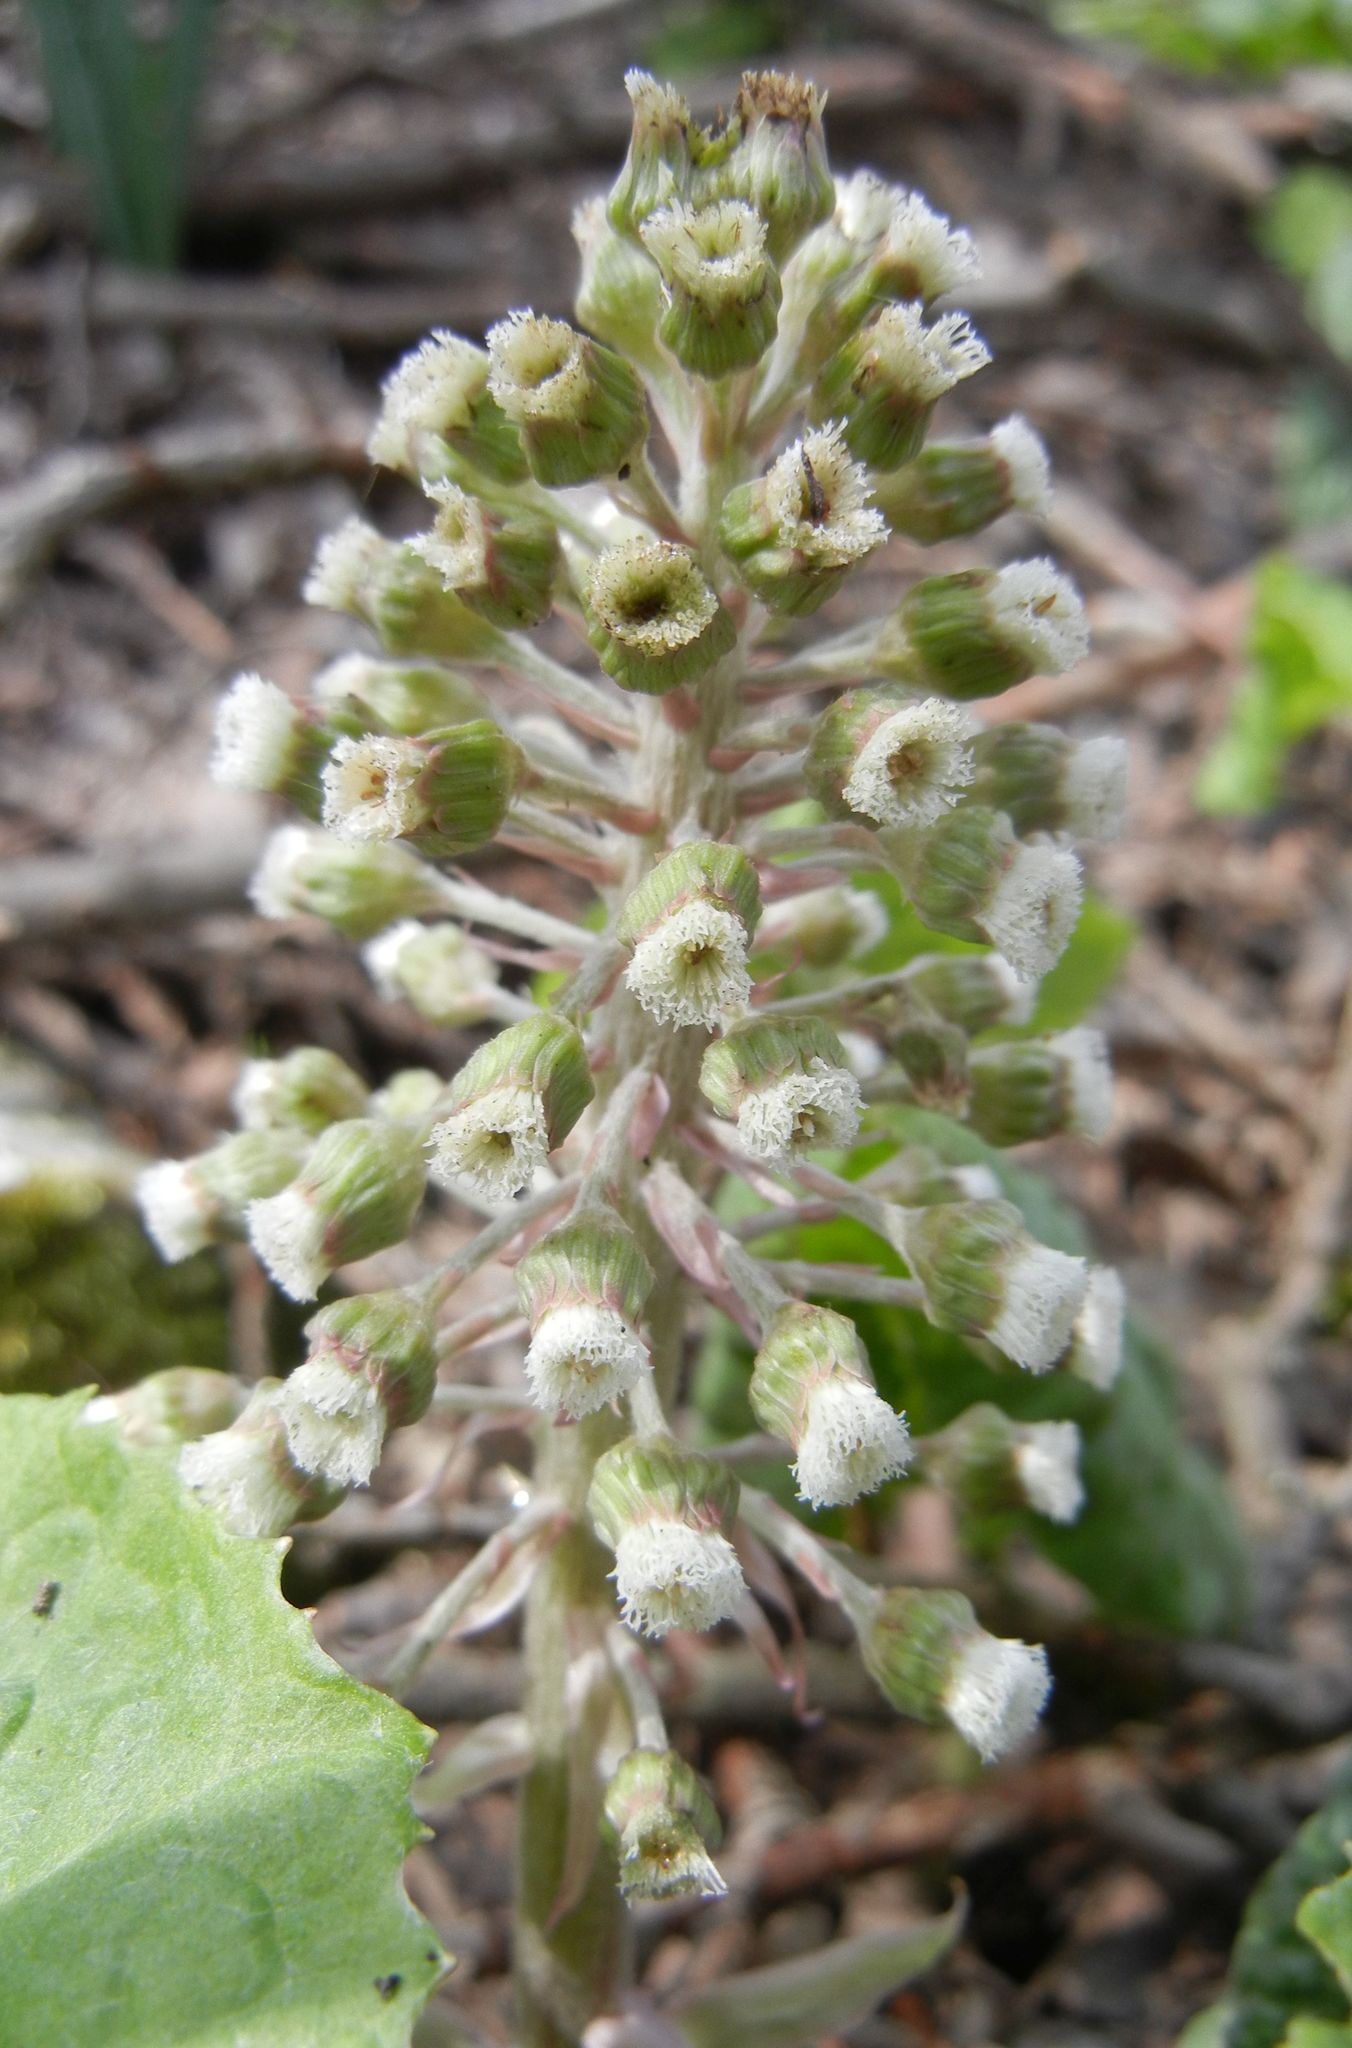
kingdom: Plantae
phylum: Tracheophyta
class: Magnoliopsida
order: Asterales
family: Asteraceae
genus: Petasites
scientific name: Petasites hybridus
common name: Butterbur
